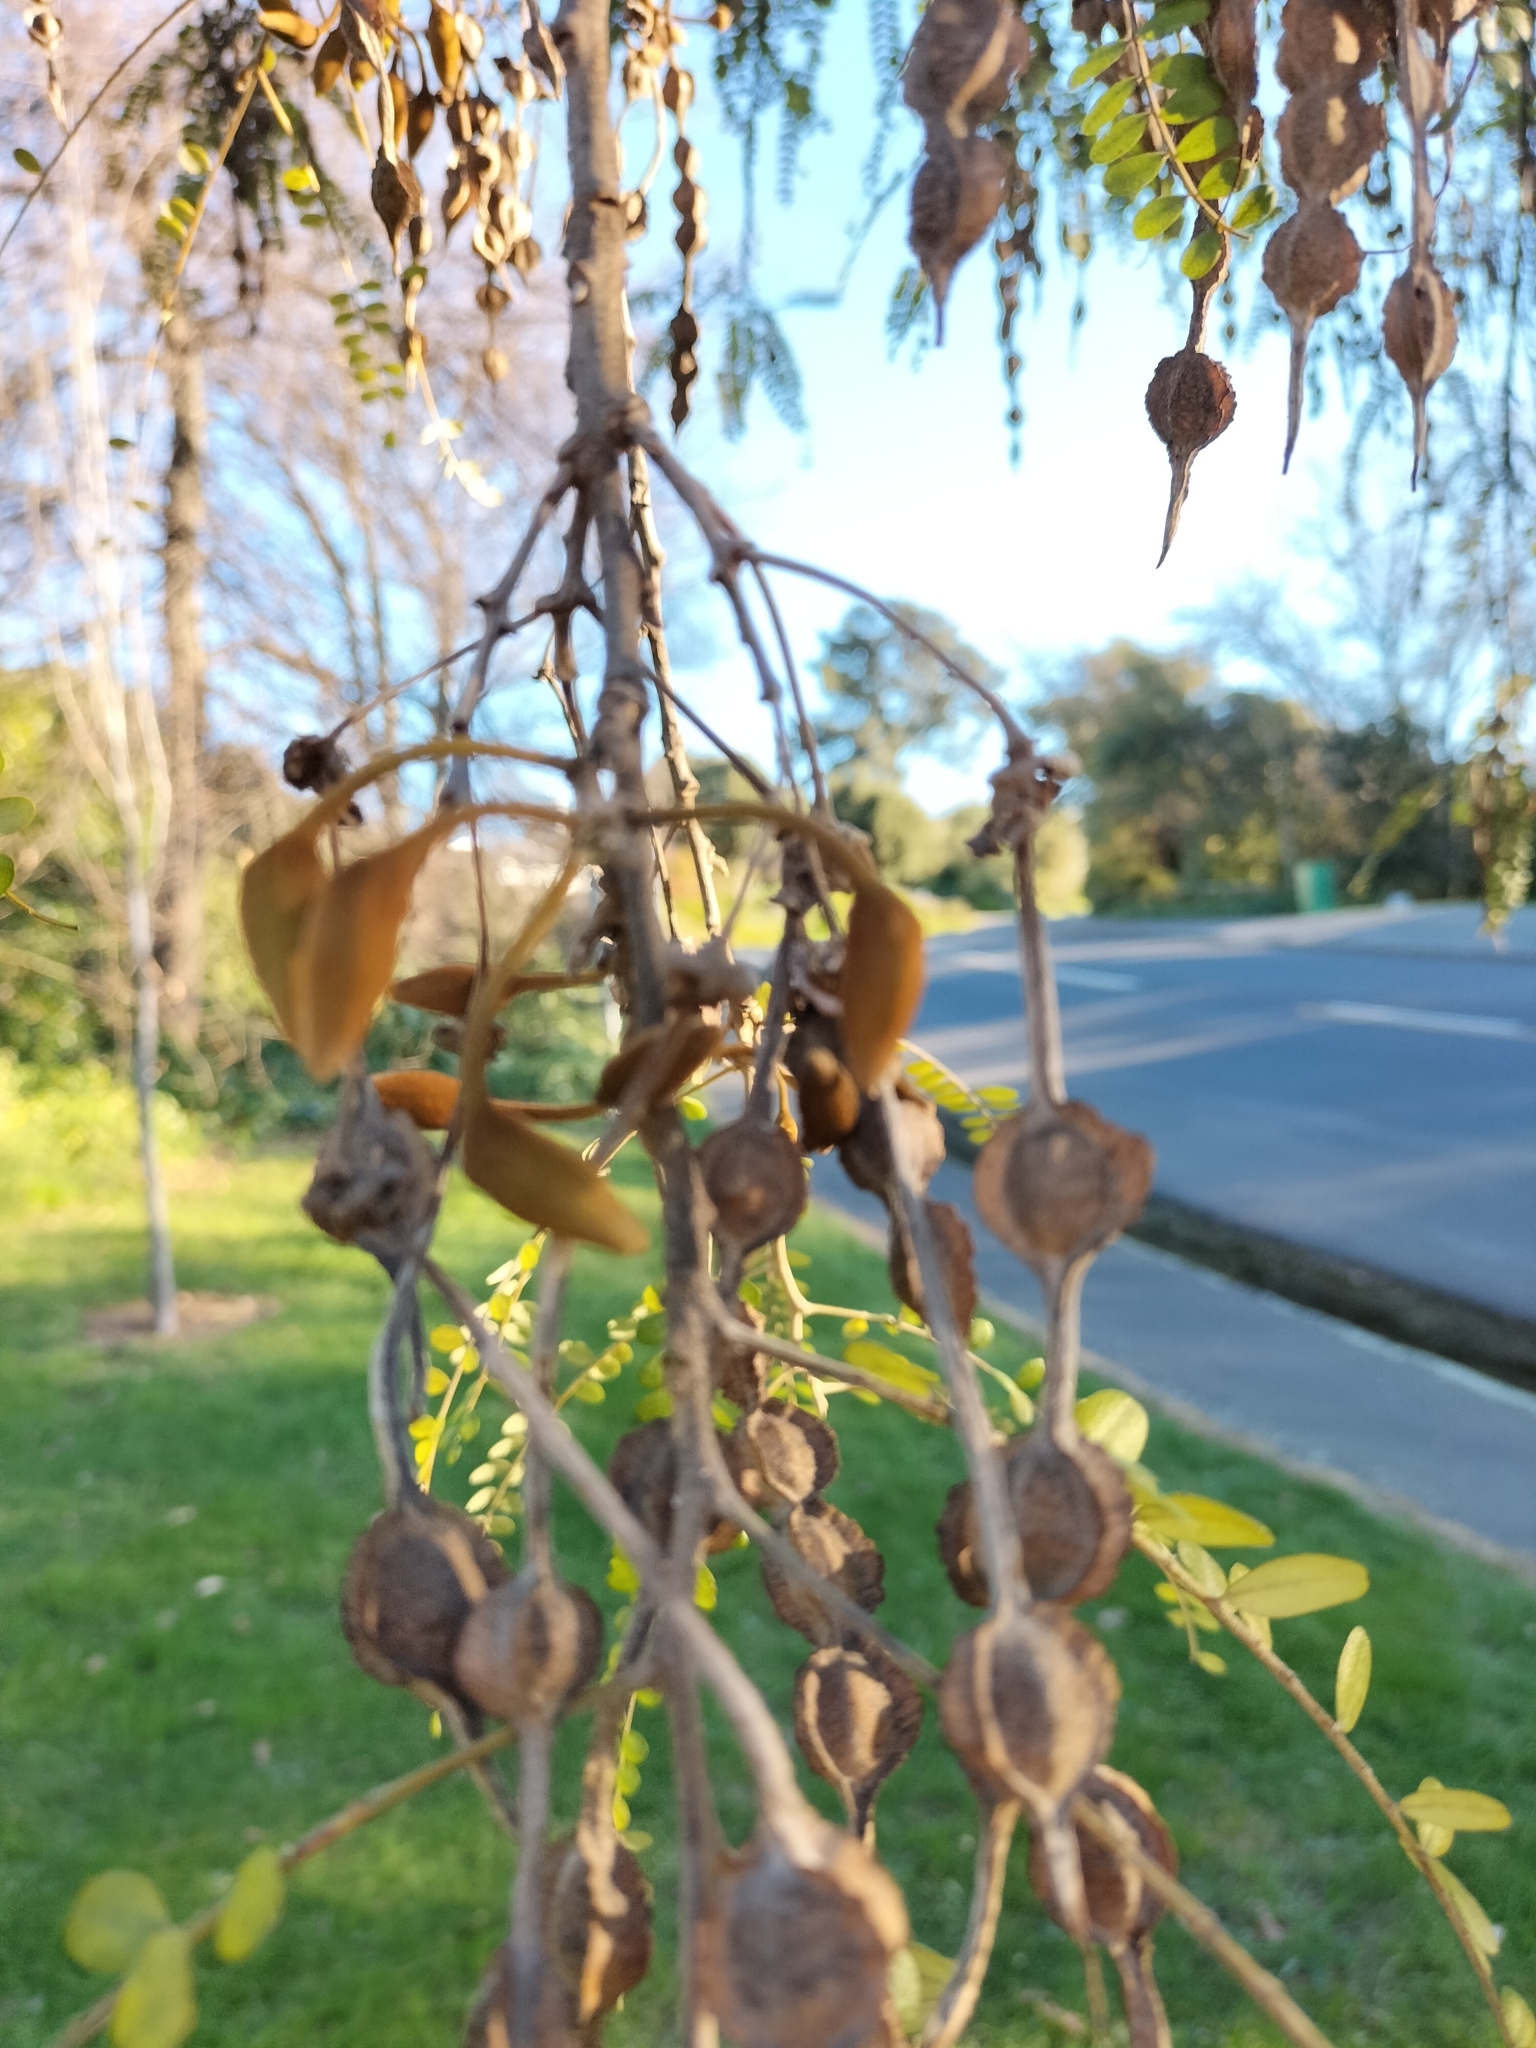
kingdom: Plantae
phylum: Tracheophyta
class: Magnoliopsida
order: Fabales
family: Fabaceae
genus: Sophora
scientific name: Sophora microphylla
